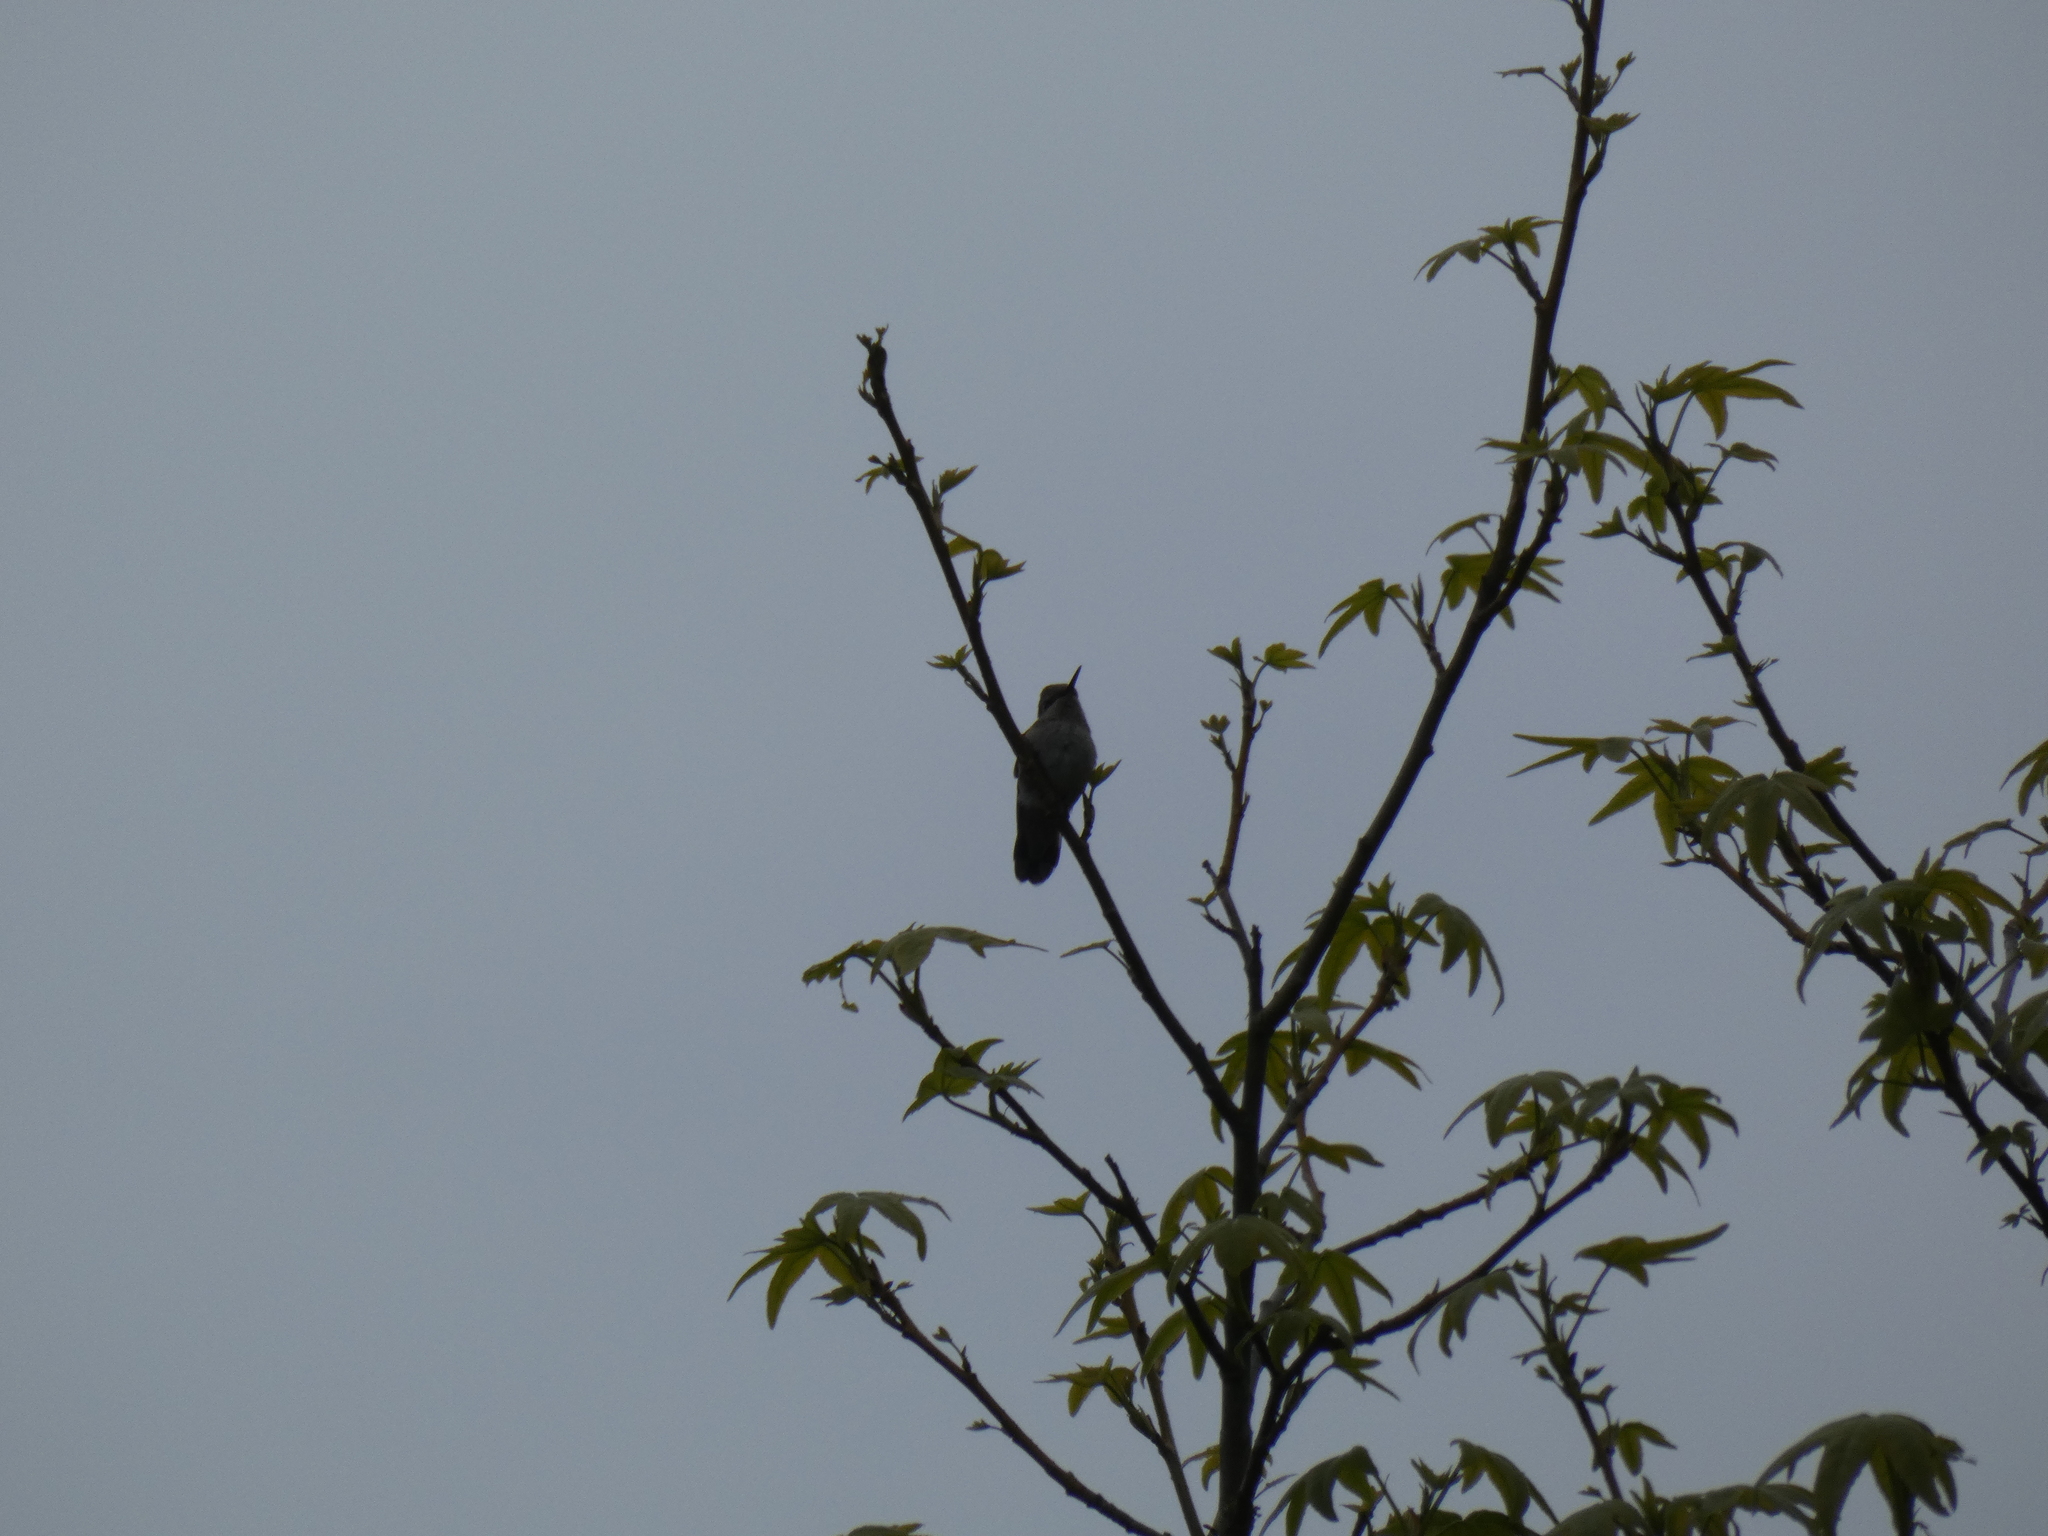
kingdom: Animalia
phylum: Chordata
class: Aves
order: Apodiformes
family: Trochilidae
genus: Calypte
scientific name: Calypte anna
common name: Anna's hummingbird
